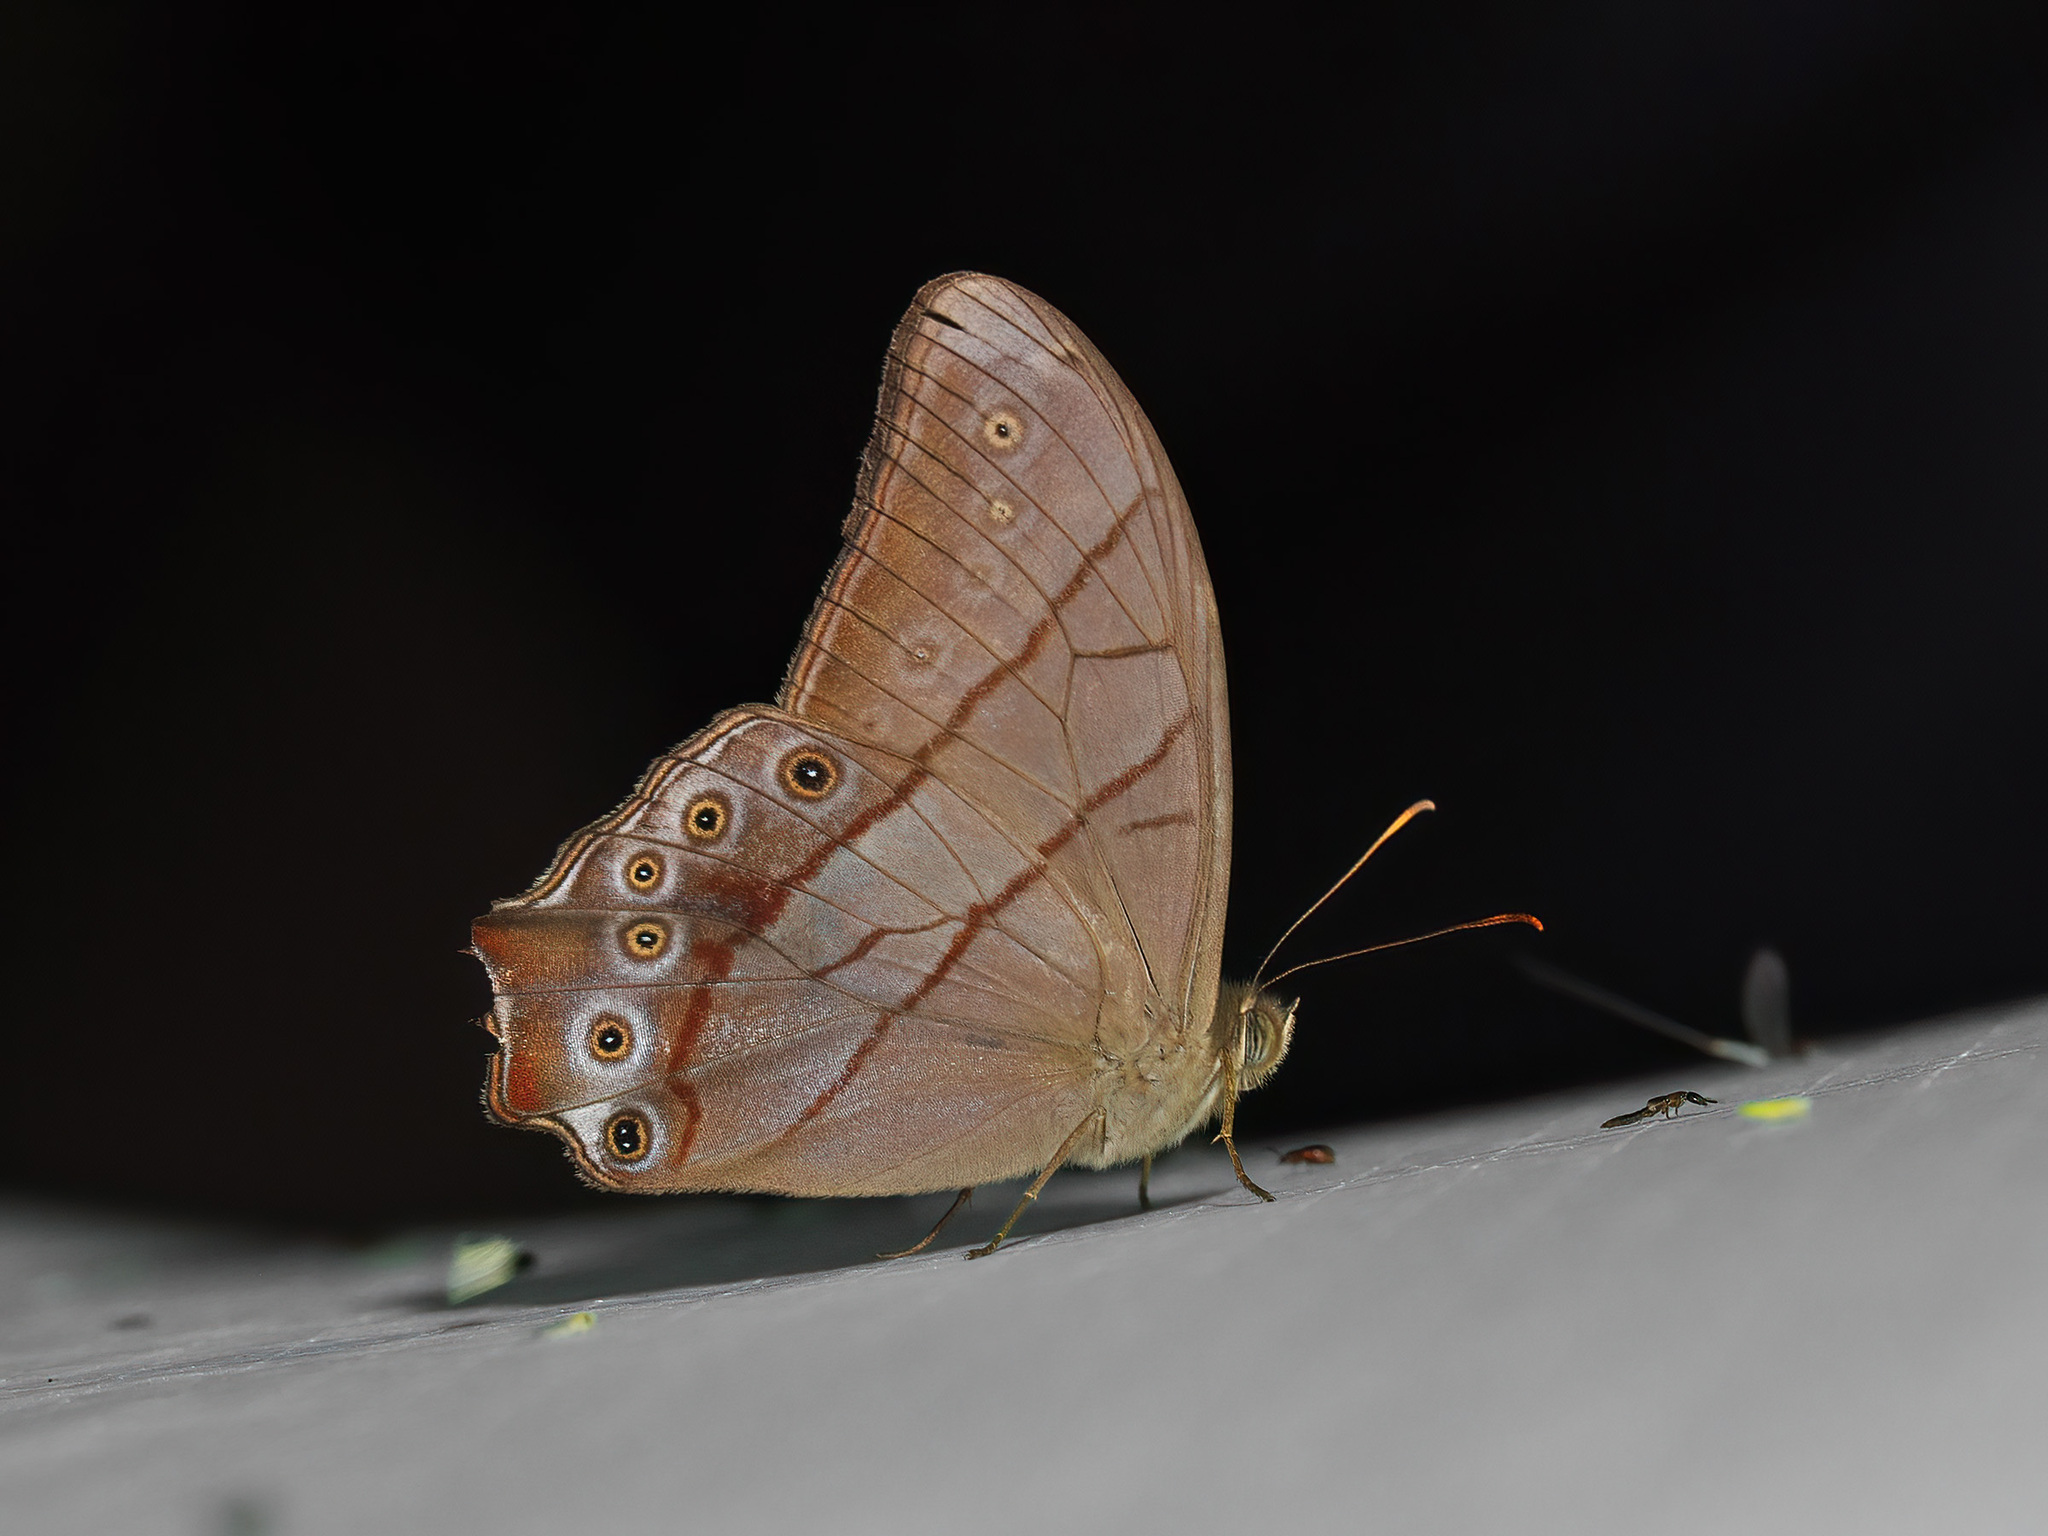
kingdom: Animalia
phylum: Arthropoda
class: Insecta
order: Lepidoptera
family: Nymphalidae
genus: Lethe
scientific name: Lethe kansa
